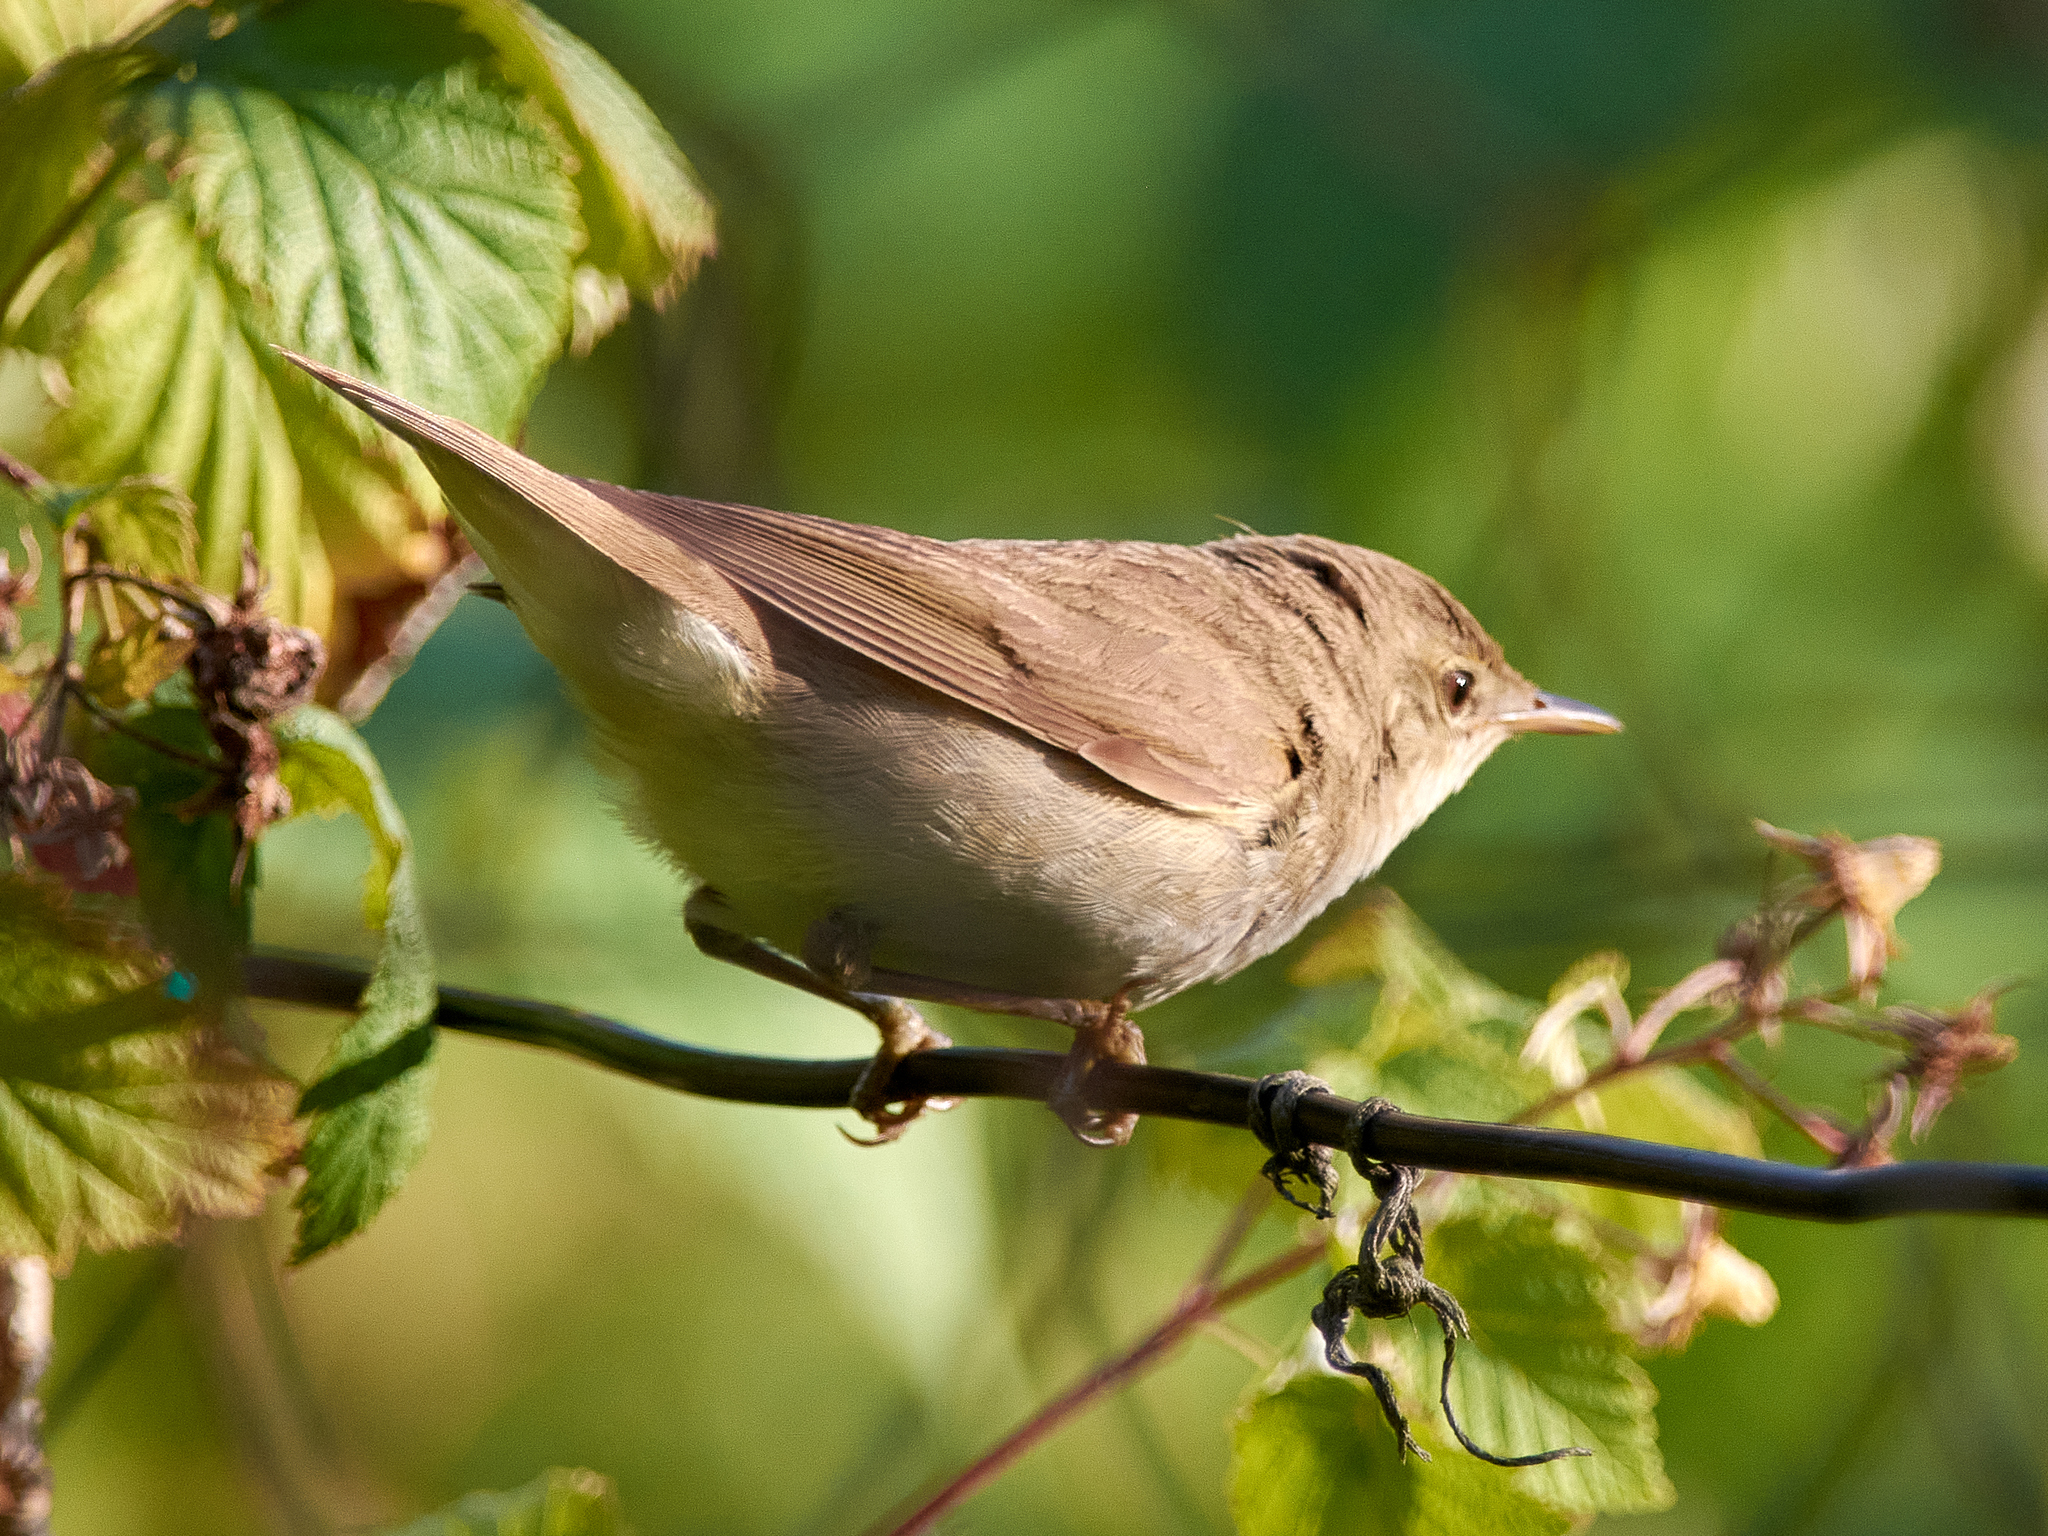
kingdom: Animalia
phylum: Chordata
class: Aves
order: Passeriformes
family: Acrocephalidae
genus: Acrocephalus
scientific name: Acrocephalus dumetorum
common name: Blyth's reed warbler
